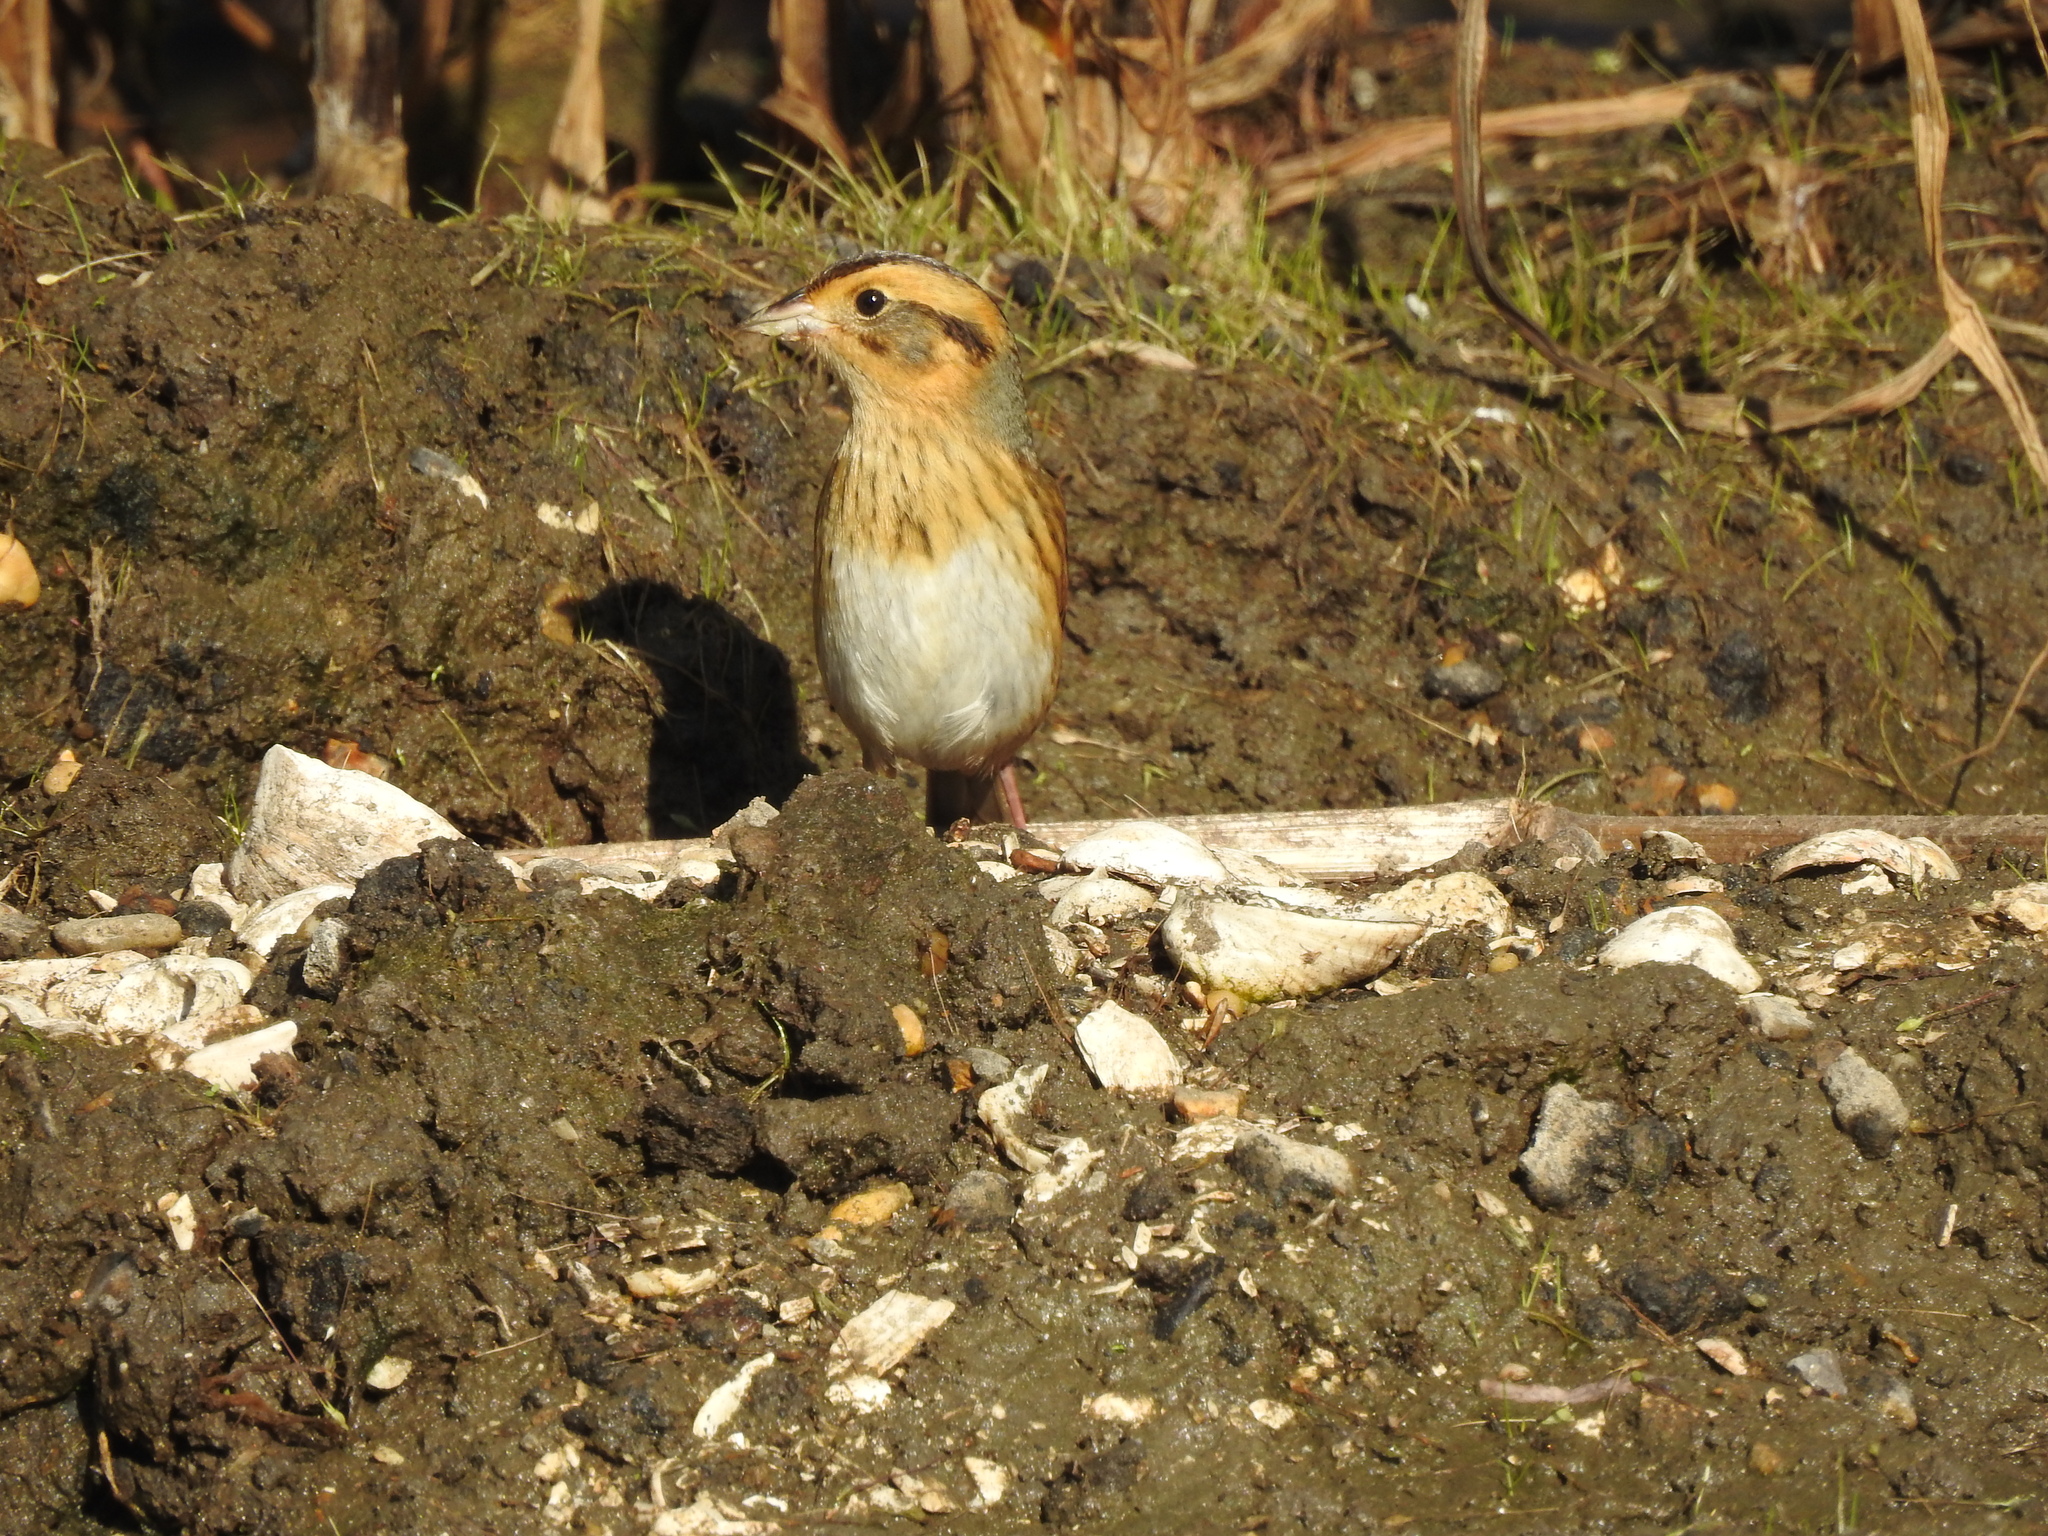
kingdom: Animalia
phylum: Chordata
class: Aves
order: Passeriformes
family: Passerellidae
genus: Ammospiza
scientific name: Ammospiza nelsoni
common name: Nelson's sparrow
